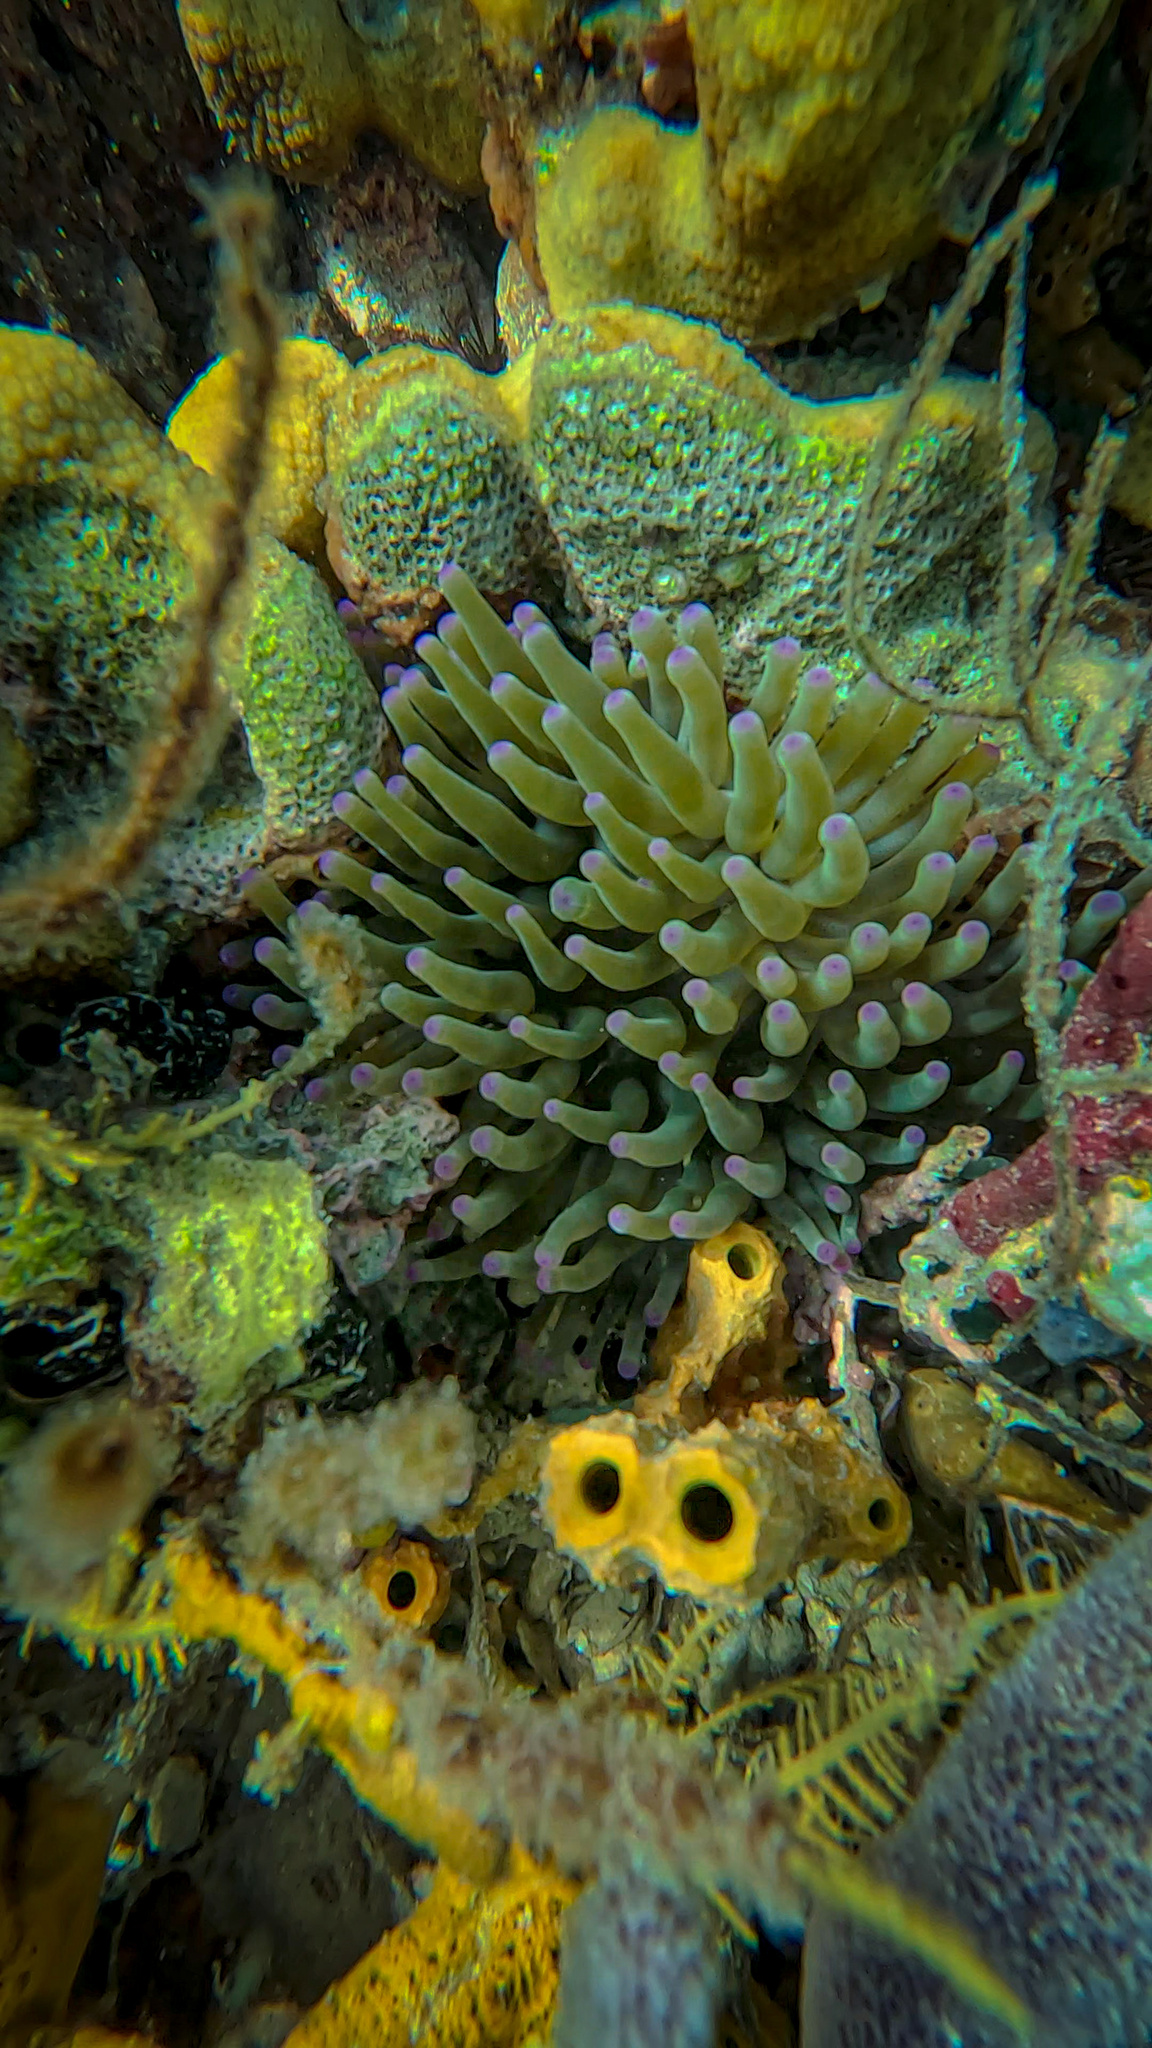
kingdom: Animalia
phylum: Cnidaria
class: Anthozoa
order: Actiniaria
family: Actiniidae
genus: Condylactis
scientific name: Condylactis gigantea
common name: Giant caribbean anemone
